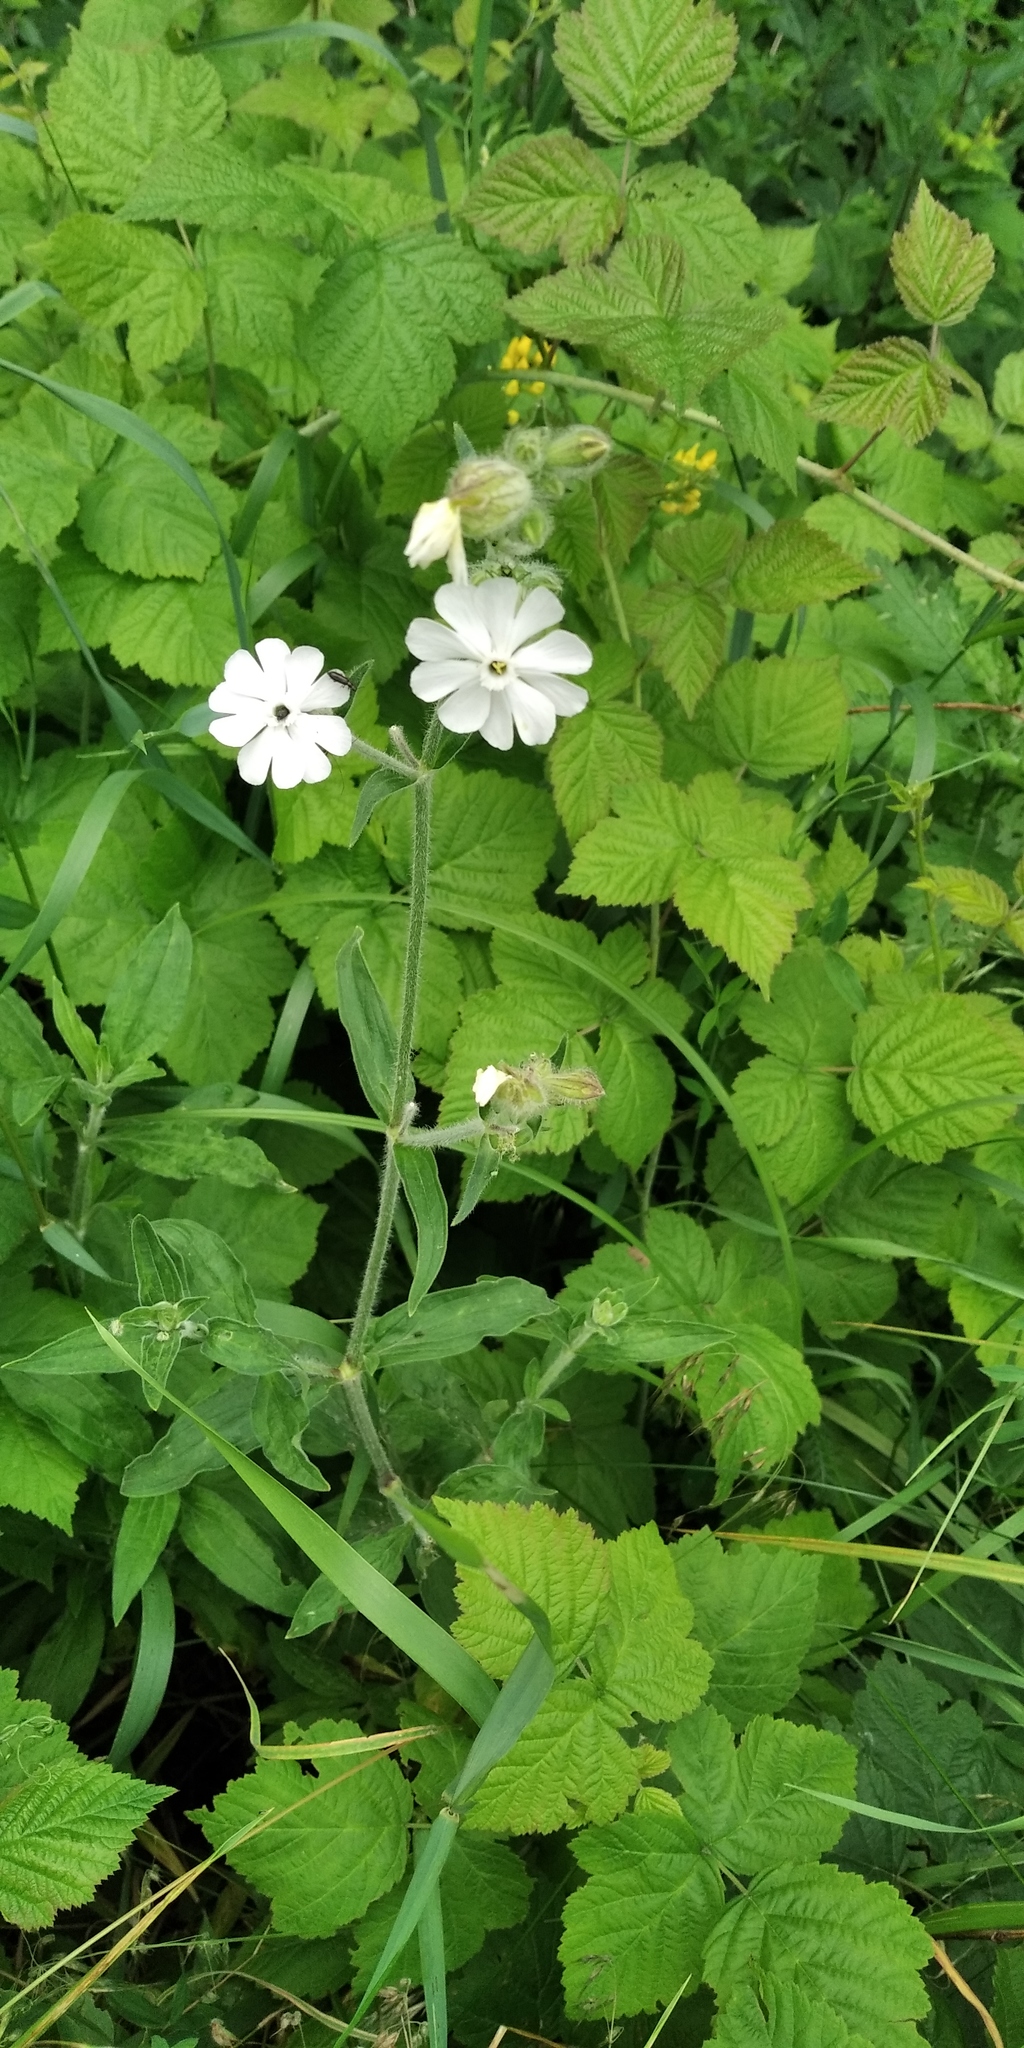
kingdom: Plantae
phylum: Tracheophyta
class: Magnoliopsida
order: Caryophyllales
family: Caryophyllaceae
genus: Silene
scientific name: Silene latifolia
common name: White campion
